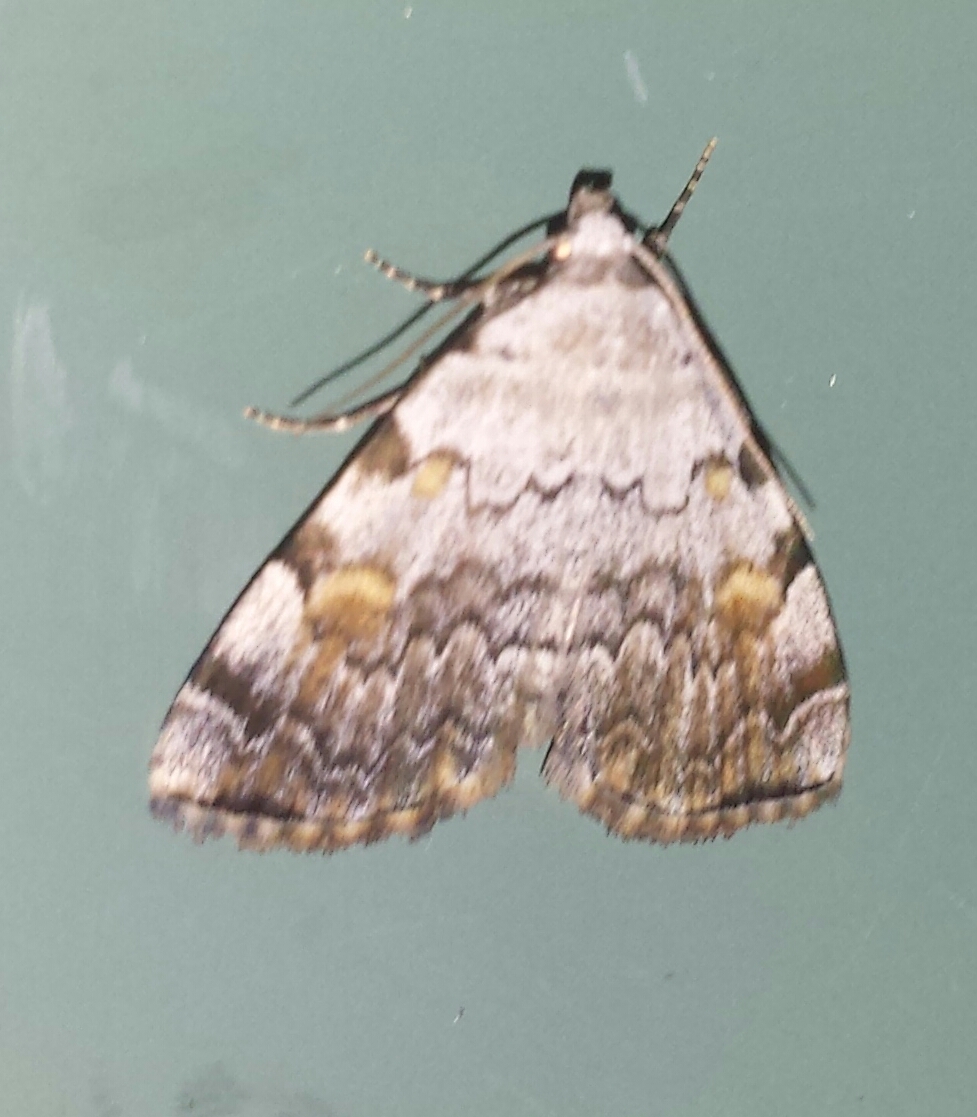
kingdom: Animalia
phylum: Arthropoda
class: Insecta
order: Lepidoptera
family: Erebidae
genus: Idia
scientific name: Idia americalis
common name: American idia moth
